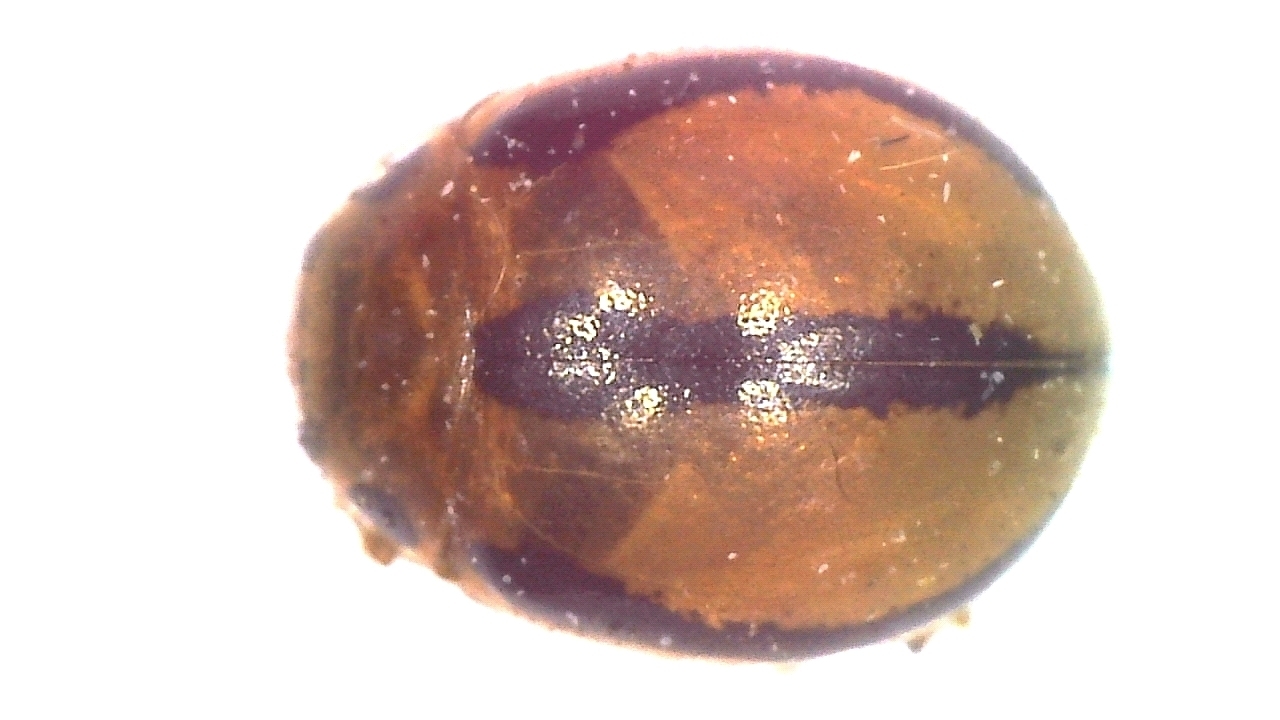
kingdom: Animalia
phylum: Arthropoda
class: Insecta
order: Coleoptera
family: Coccinellidae
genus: Tytthaspis
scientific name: Tytthaspis gebleri
